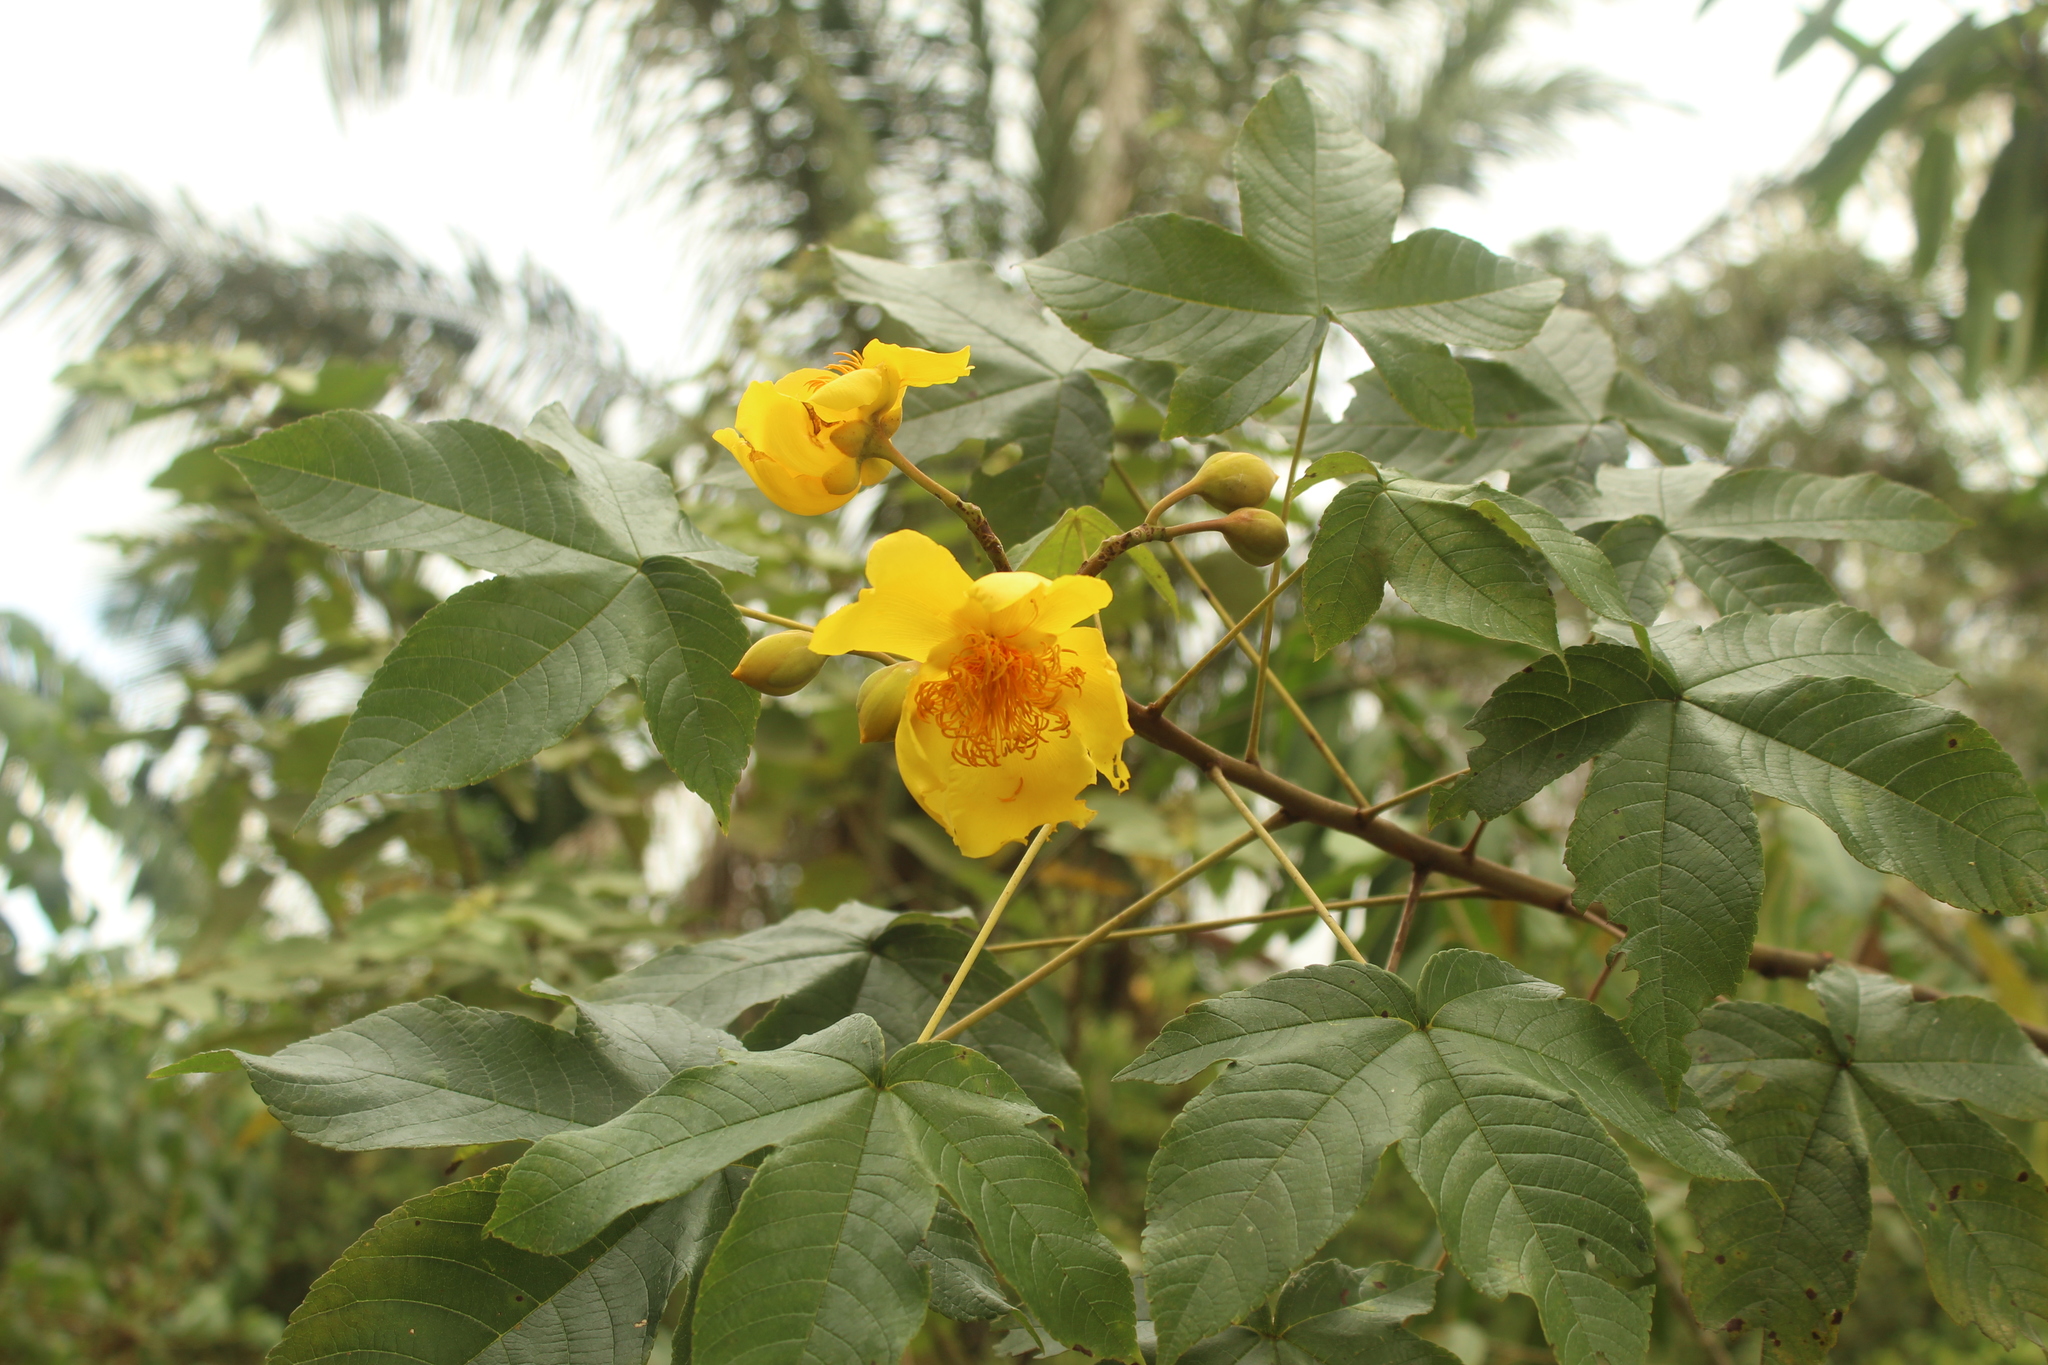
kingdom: Plantae
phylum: Tracheophyta
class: Magnoliopsida
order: Malvales
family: Cochlospermaceae
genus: Cochlospermum
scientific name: Cochlospermum vitifolium
